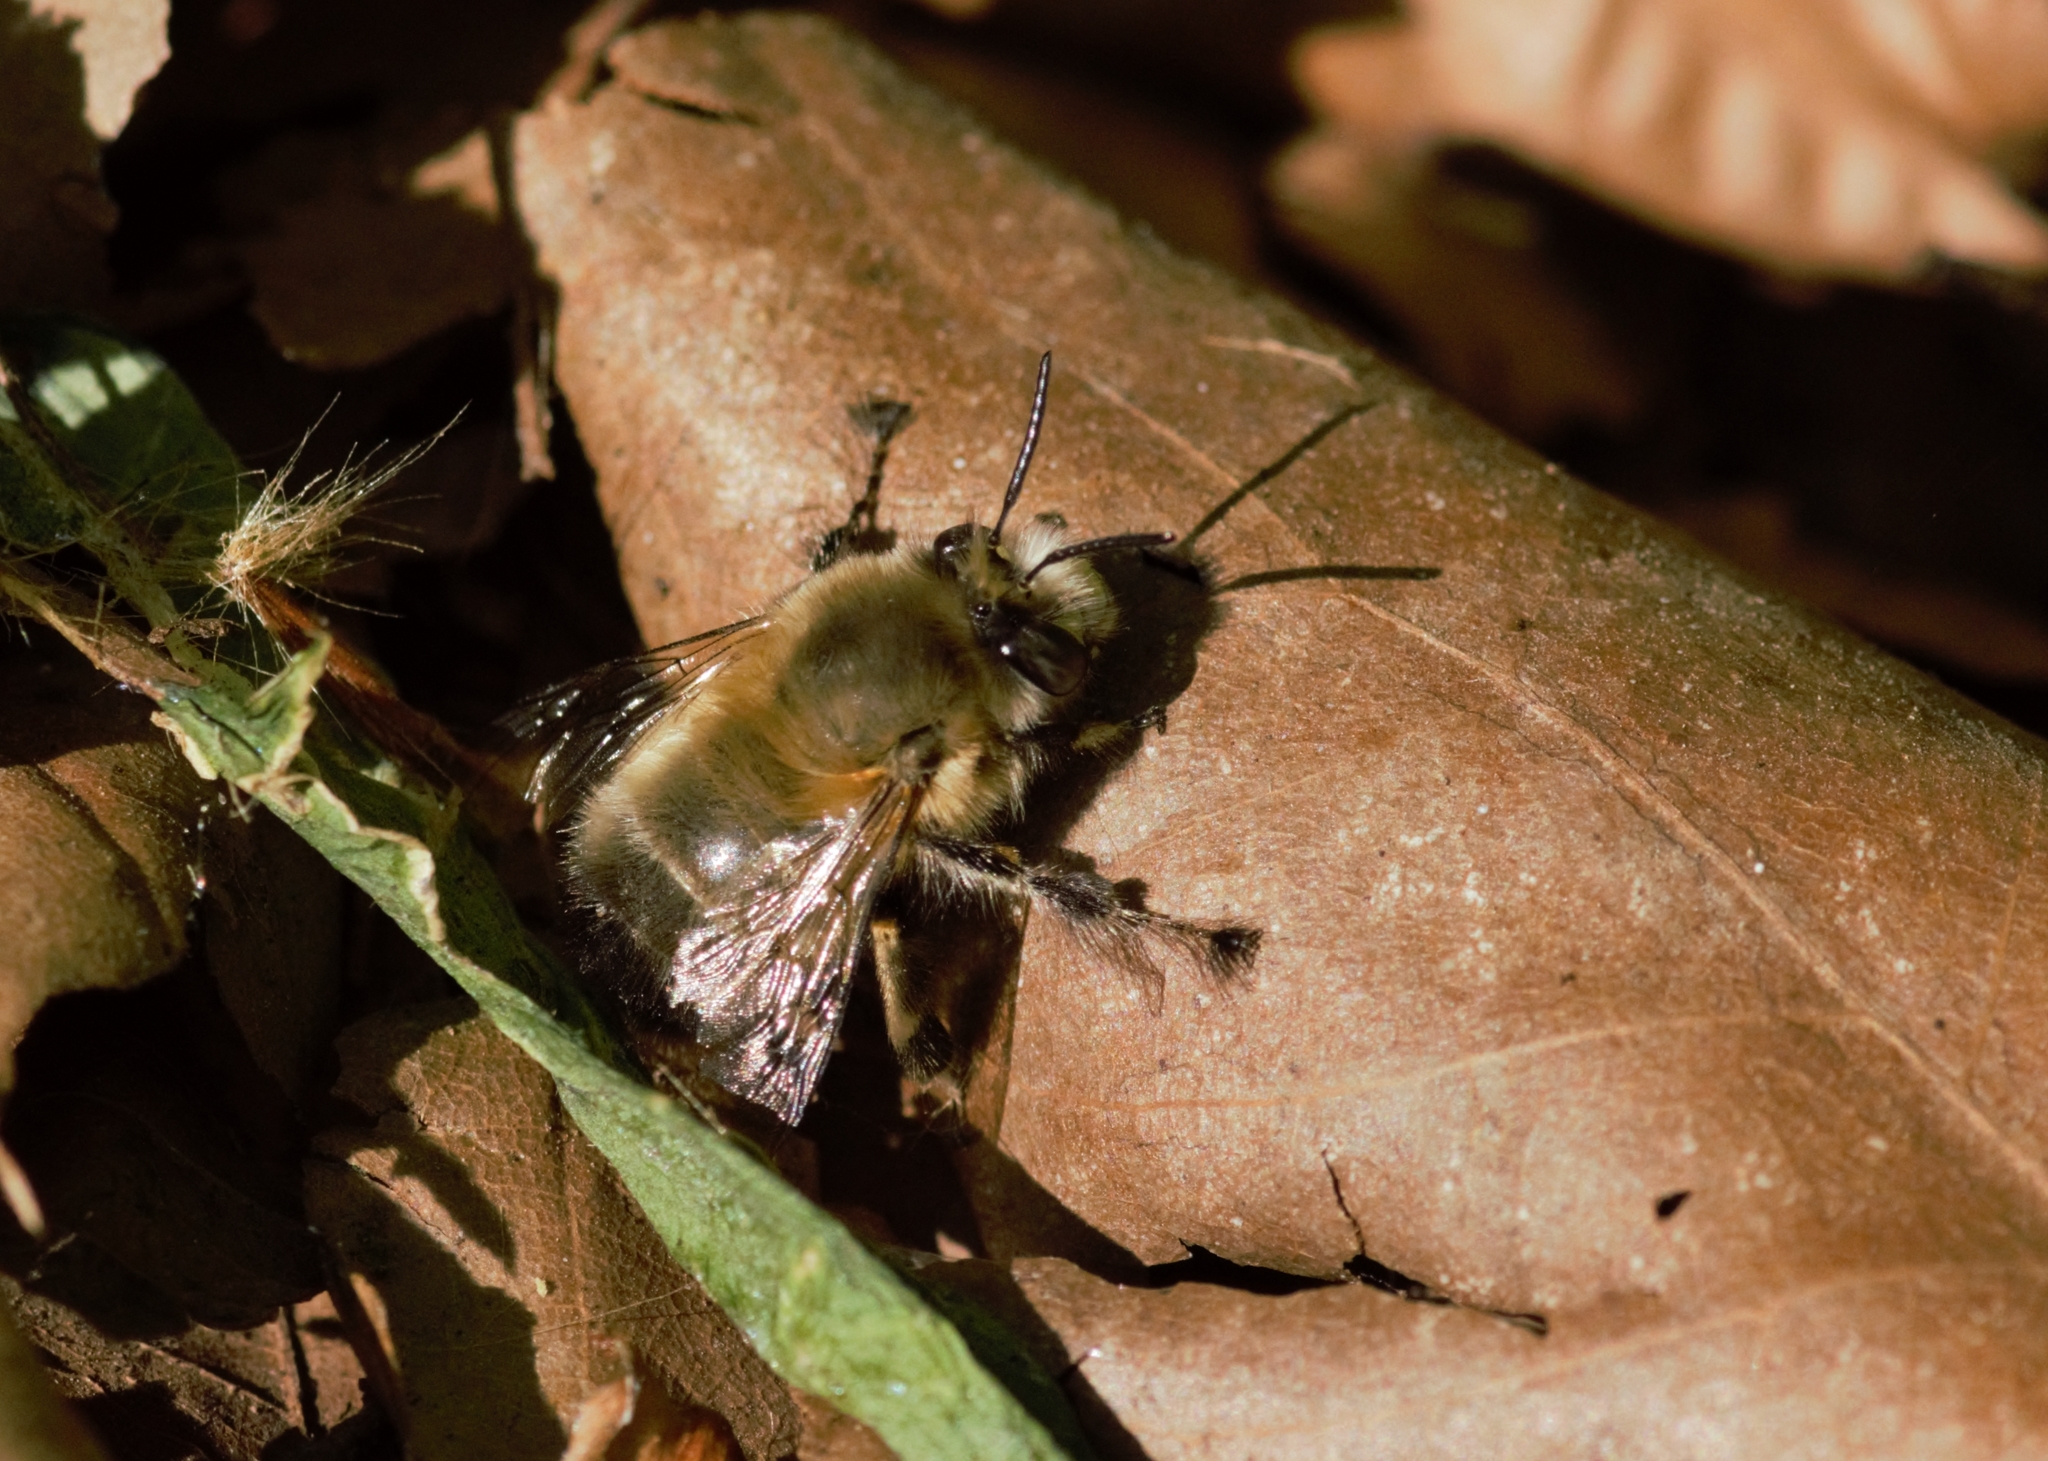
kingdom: Animalia
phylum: Arthropoda
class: Insecta
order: Hymenoptera
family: Apidae
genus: Anthophora
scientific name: Anthophora plumipes
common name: Hairy-footed flower bee
